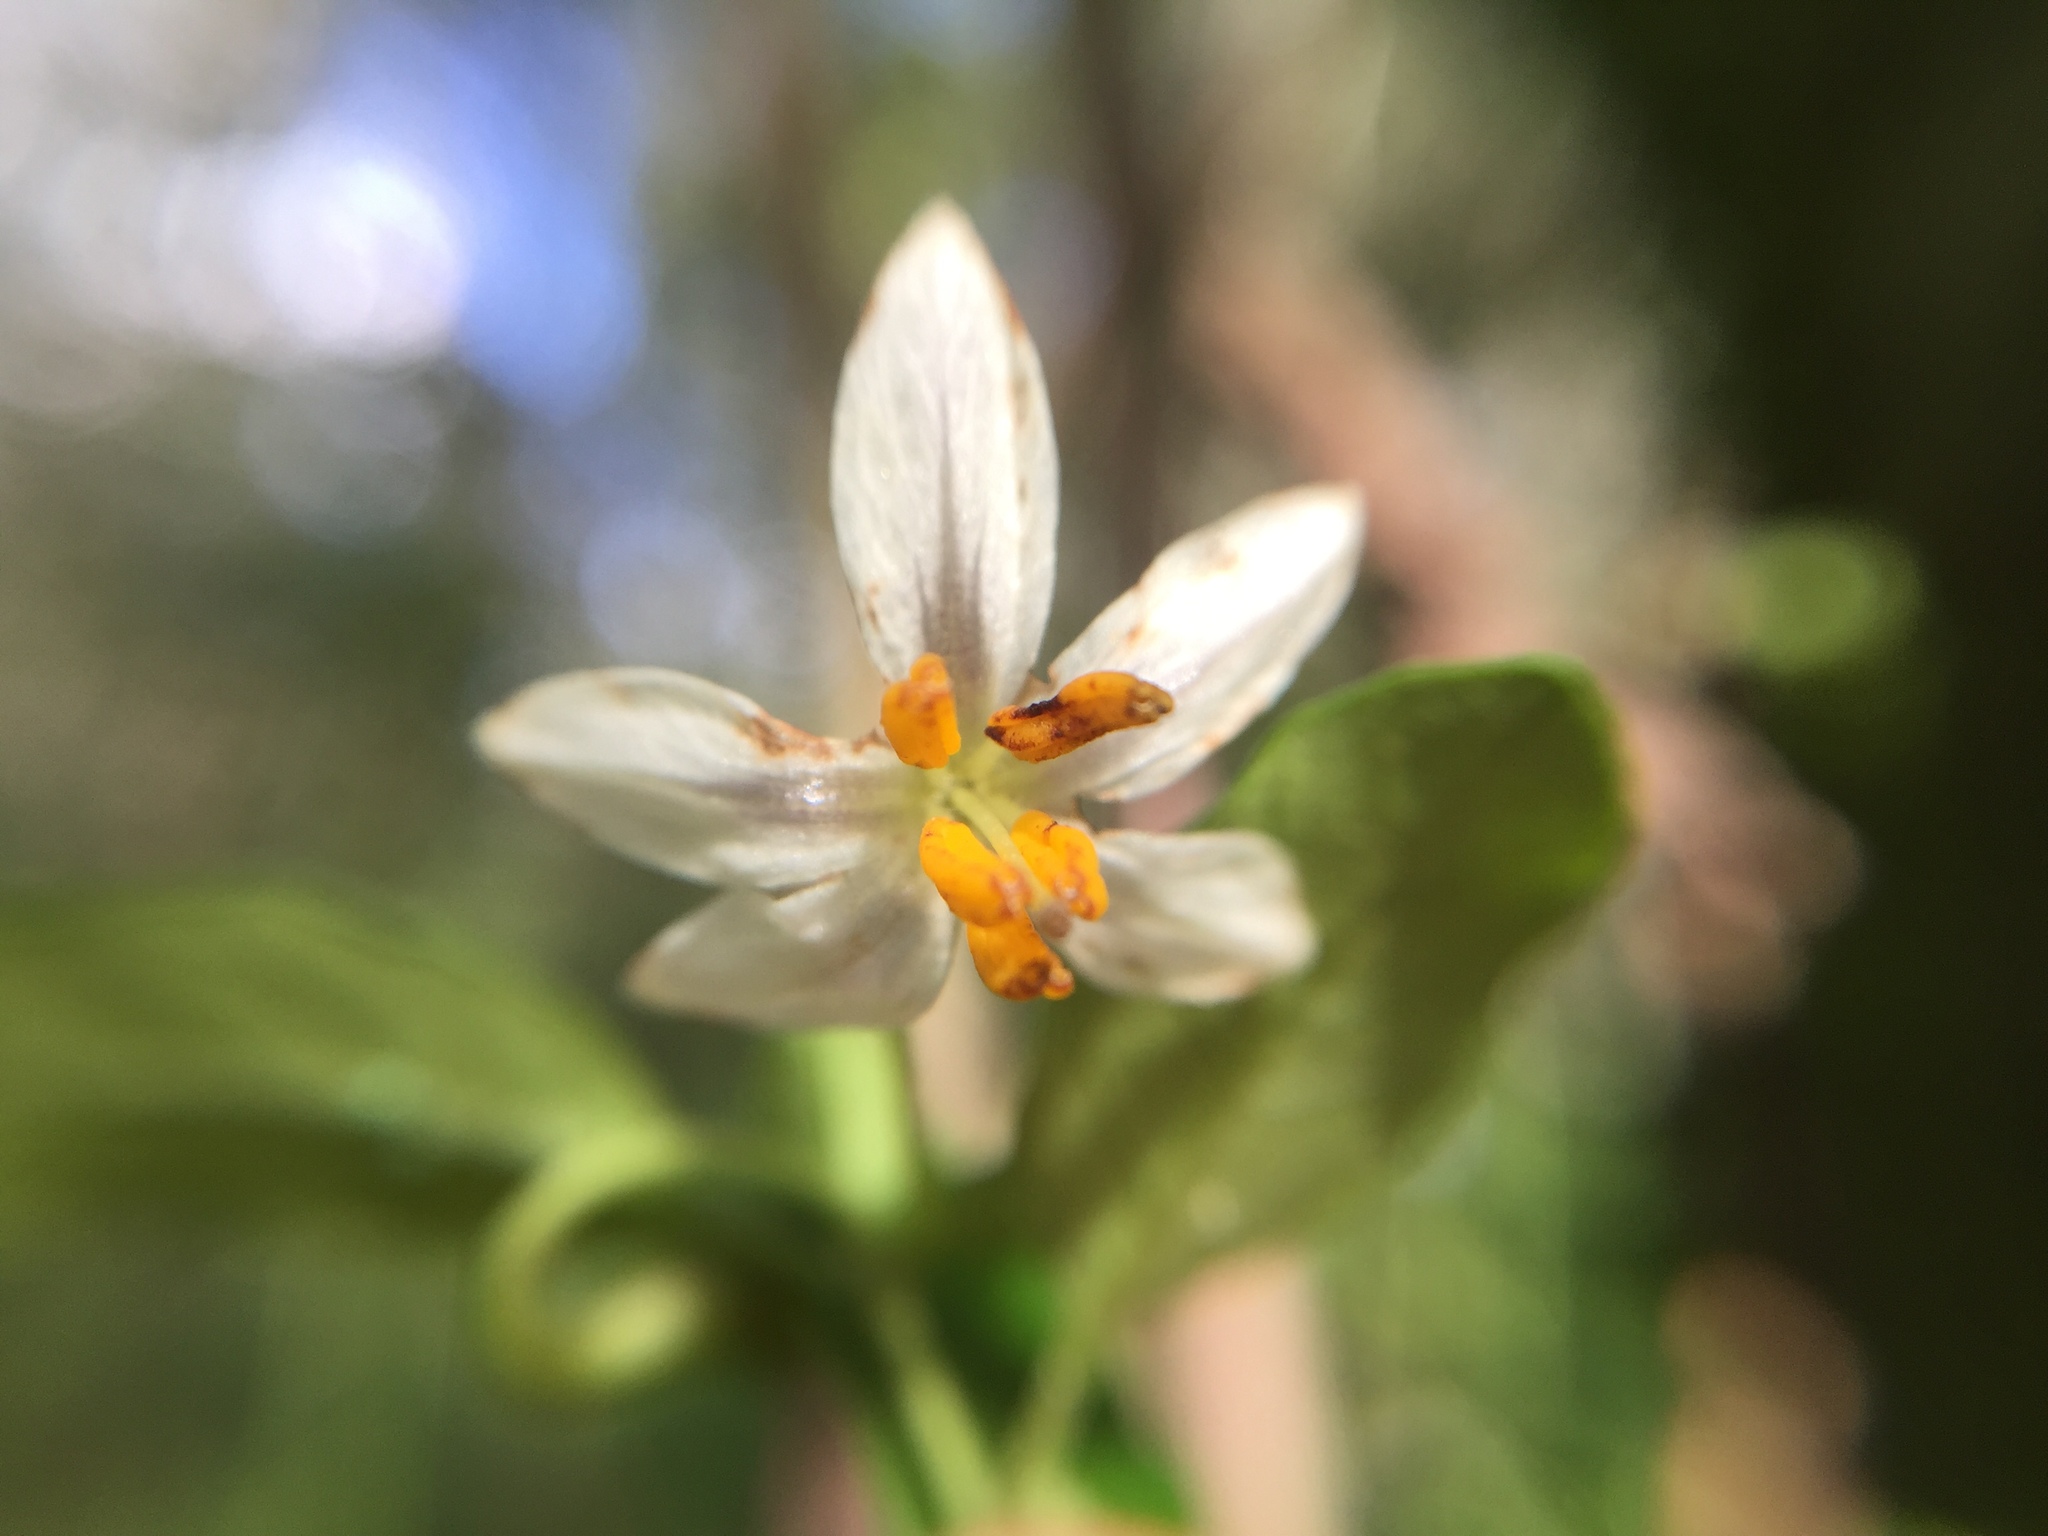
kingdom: Plantae
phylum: Tracheophyta
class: Magnoliopsida
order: Solanales
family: Solanaceae
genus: Solanum
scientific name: Solanum brevifolium
